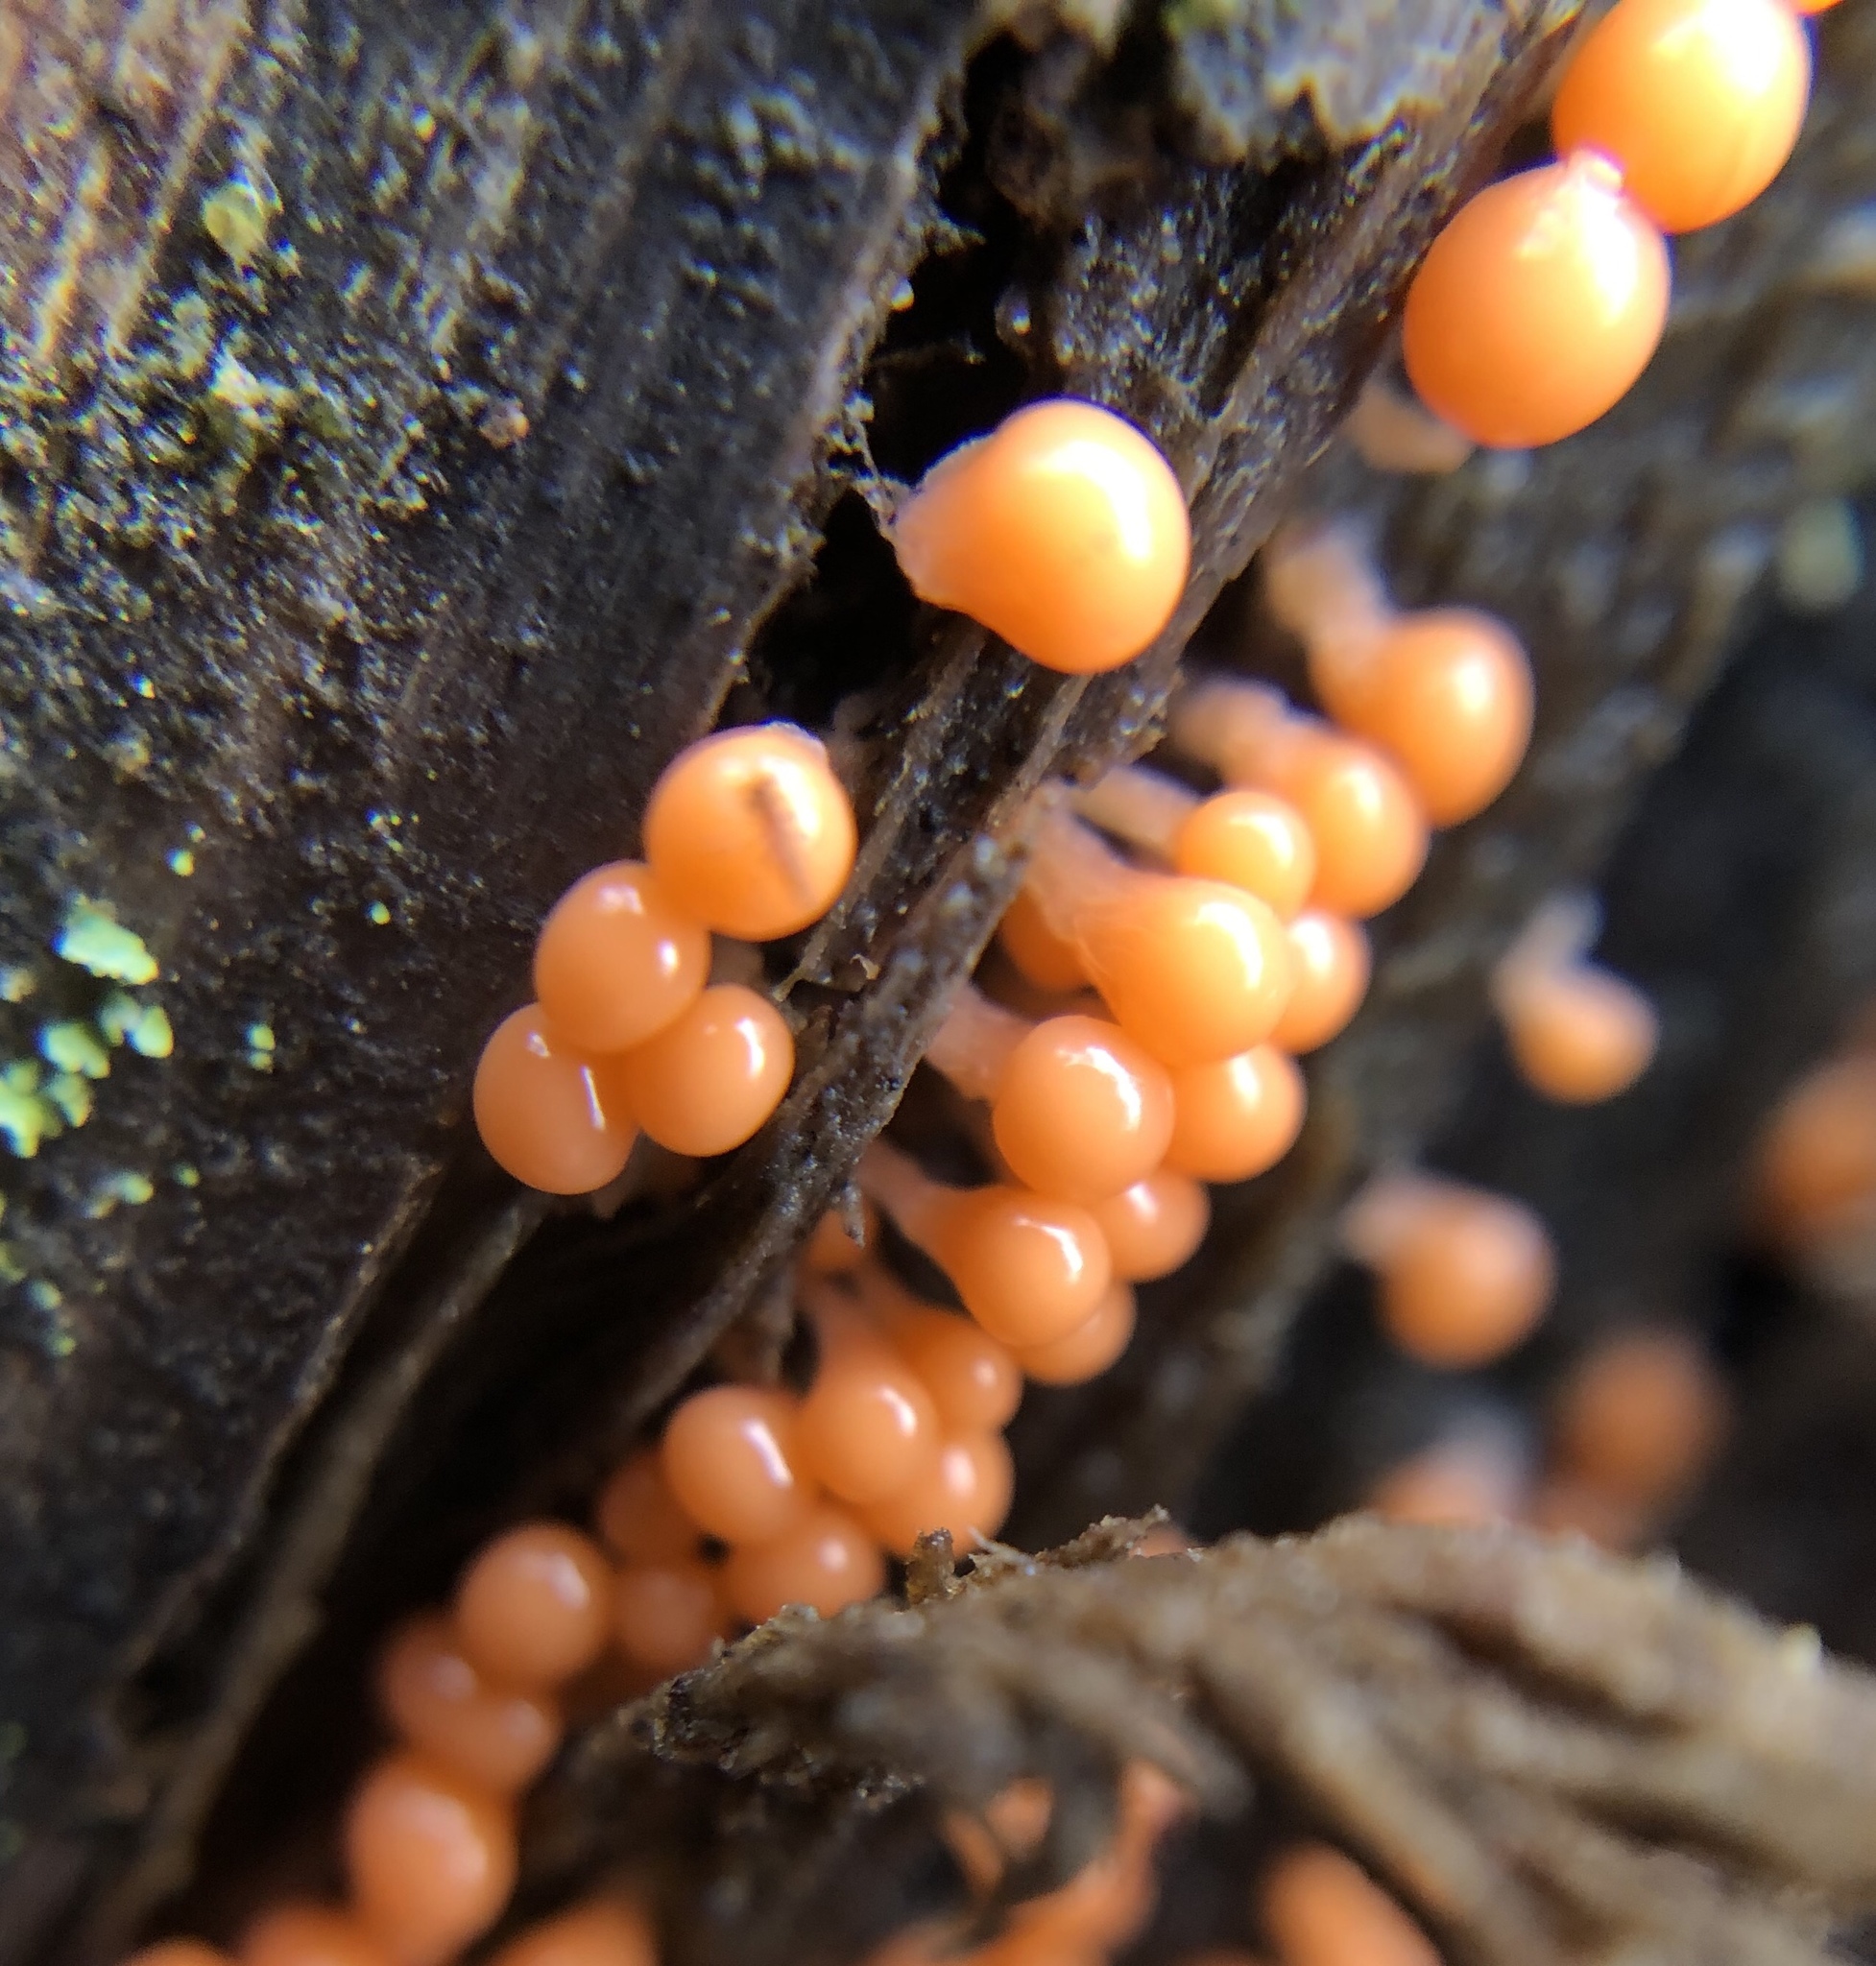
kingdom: Protozoa
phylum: Mycetozoa
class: Myxomycetes
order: Trichiales
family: Arcyriaceae
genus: Hemitrichia
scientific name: Hemitrichia decipiens
